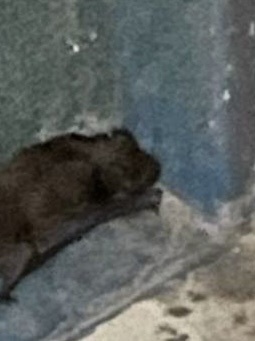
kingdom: Animalia
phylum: Chordata
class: Mammalia
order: Chiroptera
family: Vespertilionidae
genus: Nyctalus
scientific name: Nyctalus noctula
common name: Noctule
